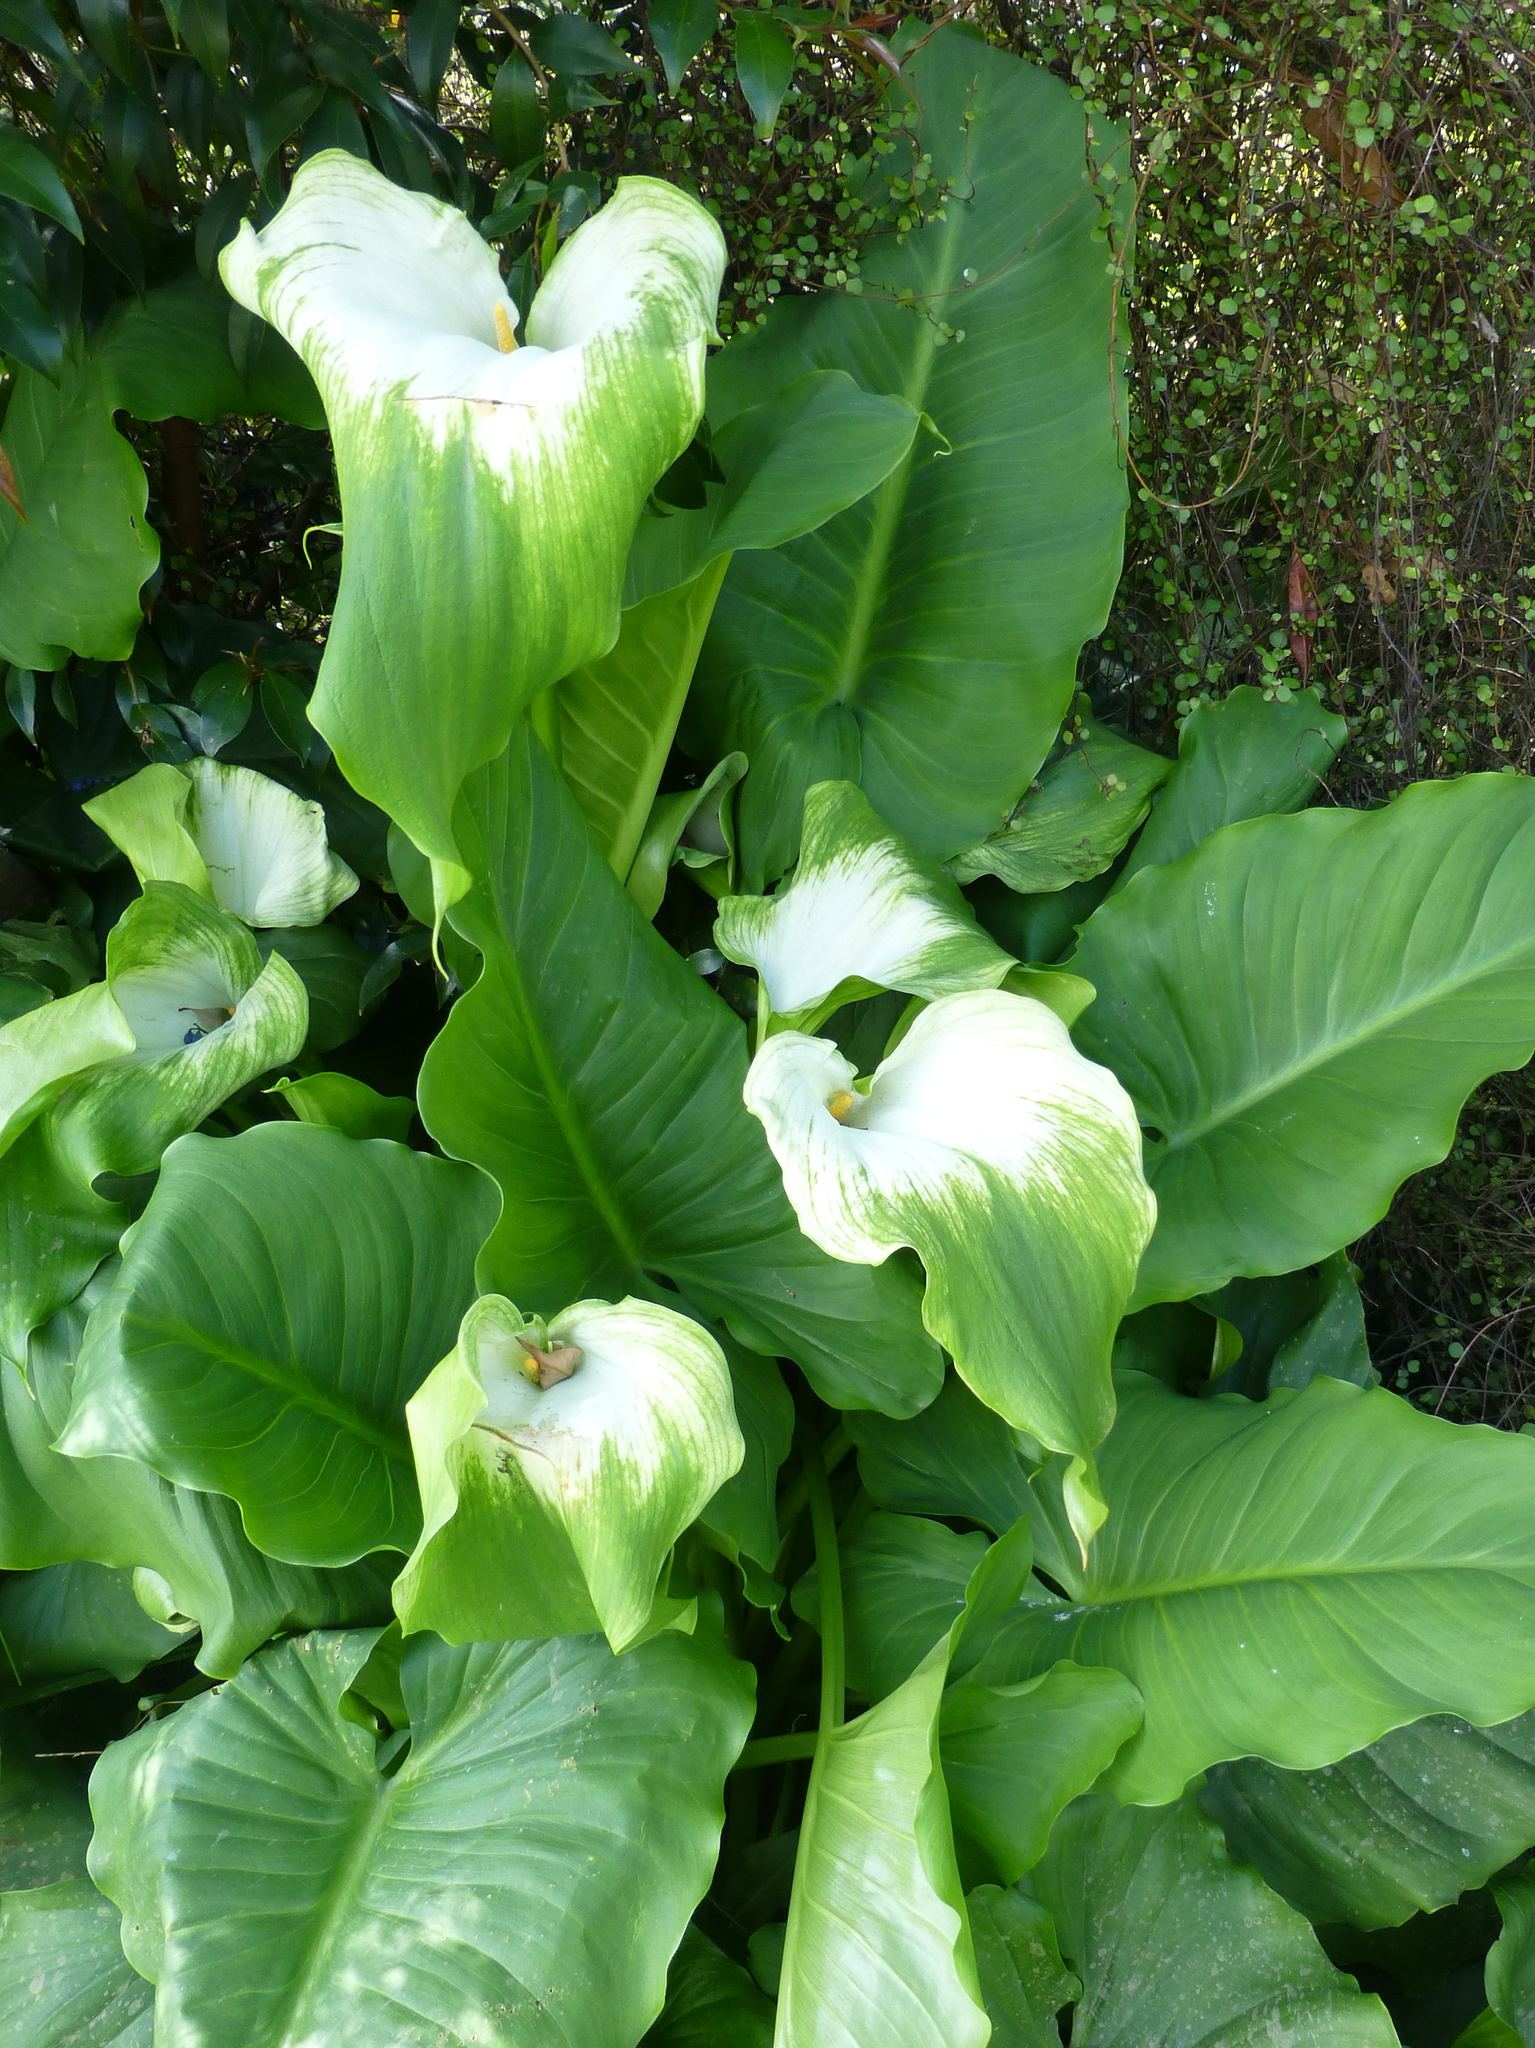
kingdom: Plantae
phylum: Tracheophyta
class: Liliopsida
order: Alismatales
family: Araceae
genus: Zantedeschia
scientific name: Zantedeschia aethiopica
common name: Altar-lily
